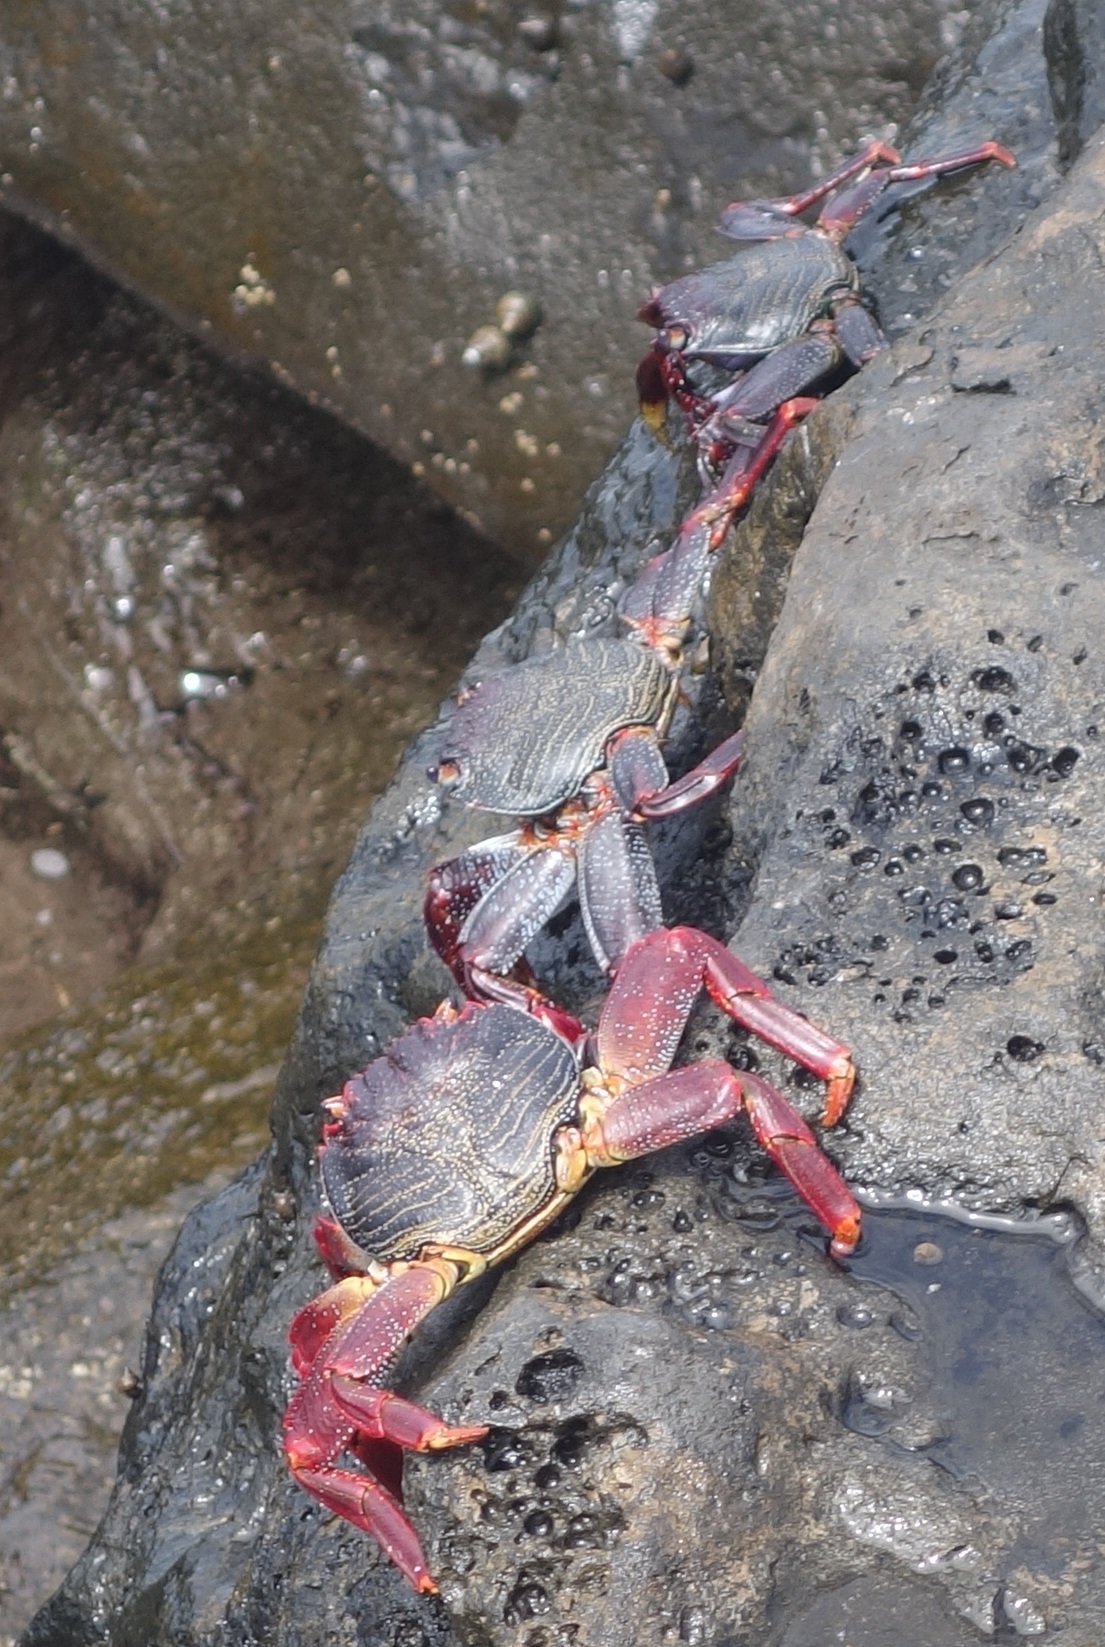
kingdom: Animalia
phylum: Arthropoda
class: Malacostraca
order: Decapoda
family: Grapsidae
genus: Grapsus
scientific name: Grapsus adscensionis
